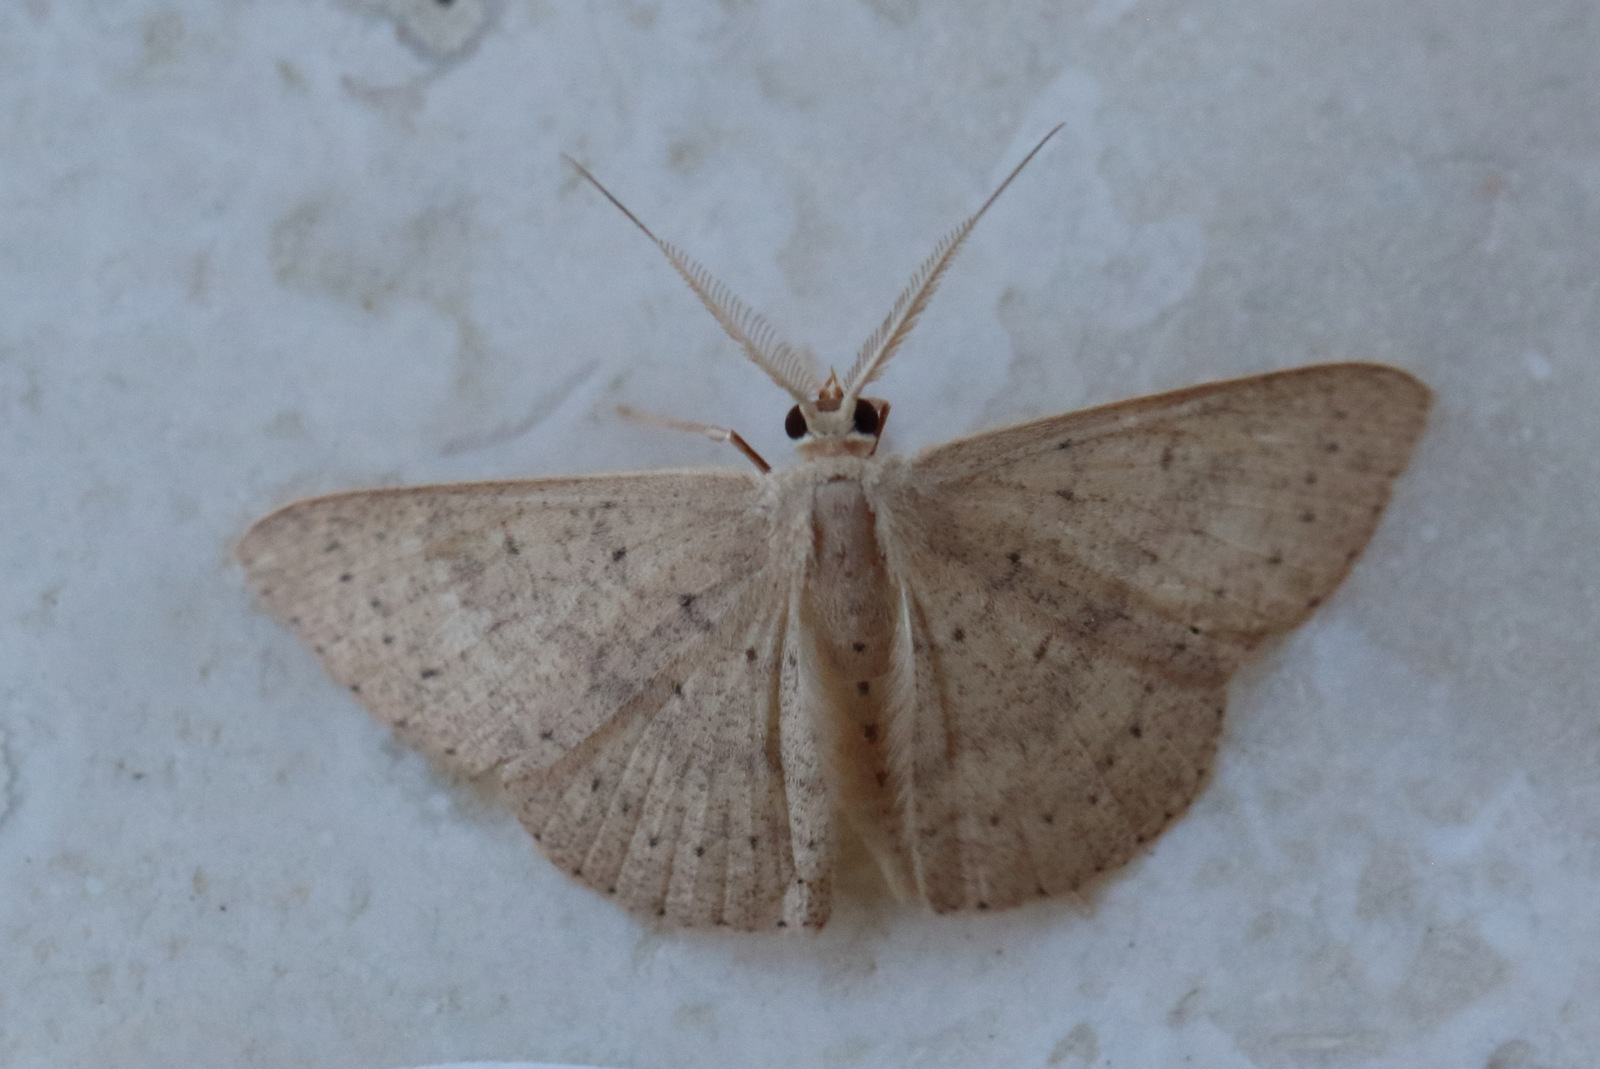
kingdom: Animalia
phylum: Arthropoda
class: Insecta
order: Lepidoptera
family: Geometridae
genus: Cyclophora
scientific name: Cyclophora obstataria
